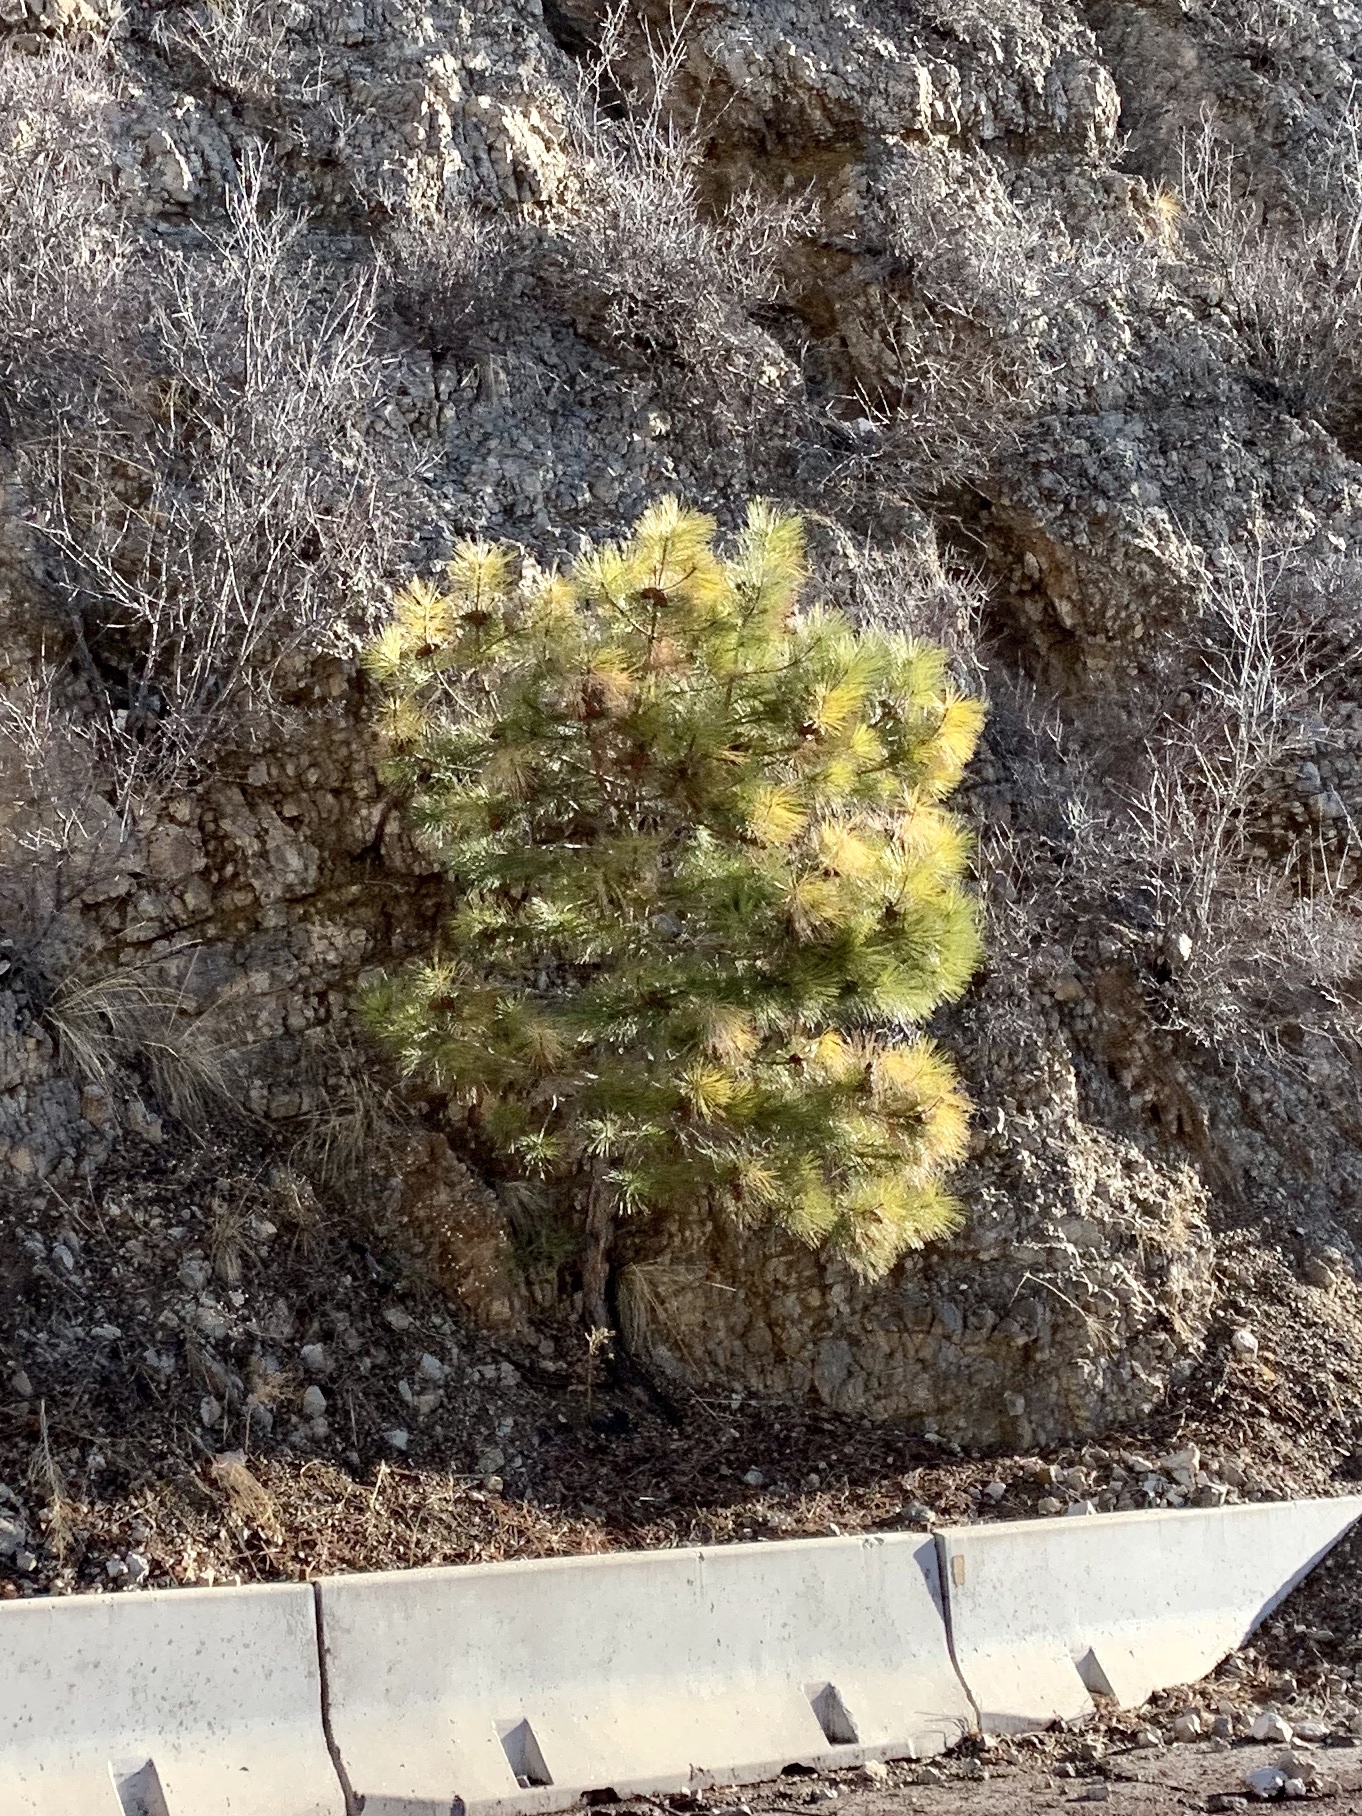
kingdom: Plantae
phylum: Tracheophyta
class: Pinopsida
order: Pinales
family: Pinaceae
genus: Pinus
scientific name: Pinus ponderosa
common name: Western yellow-pine
